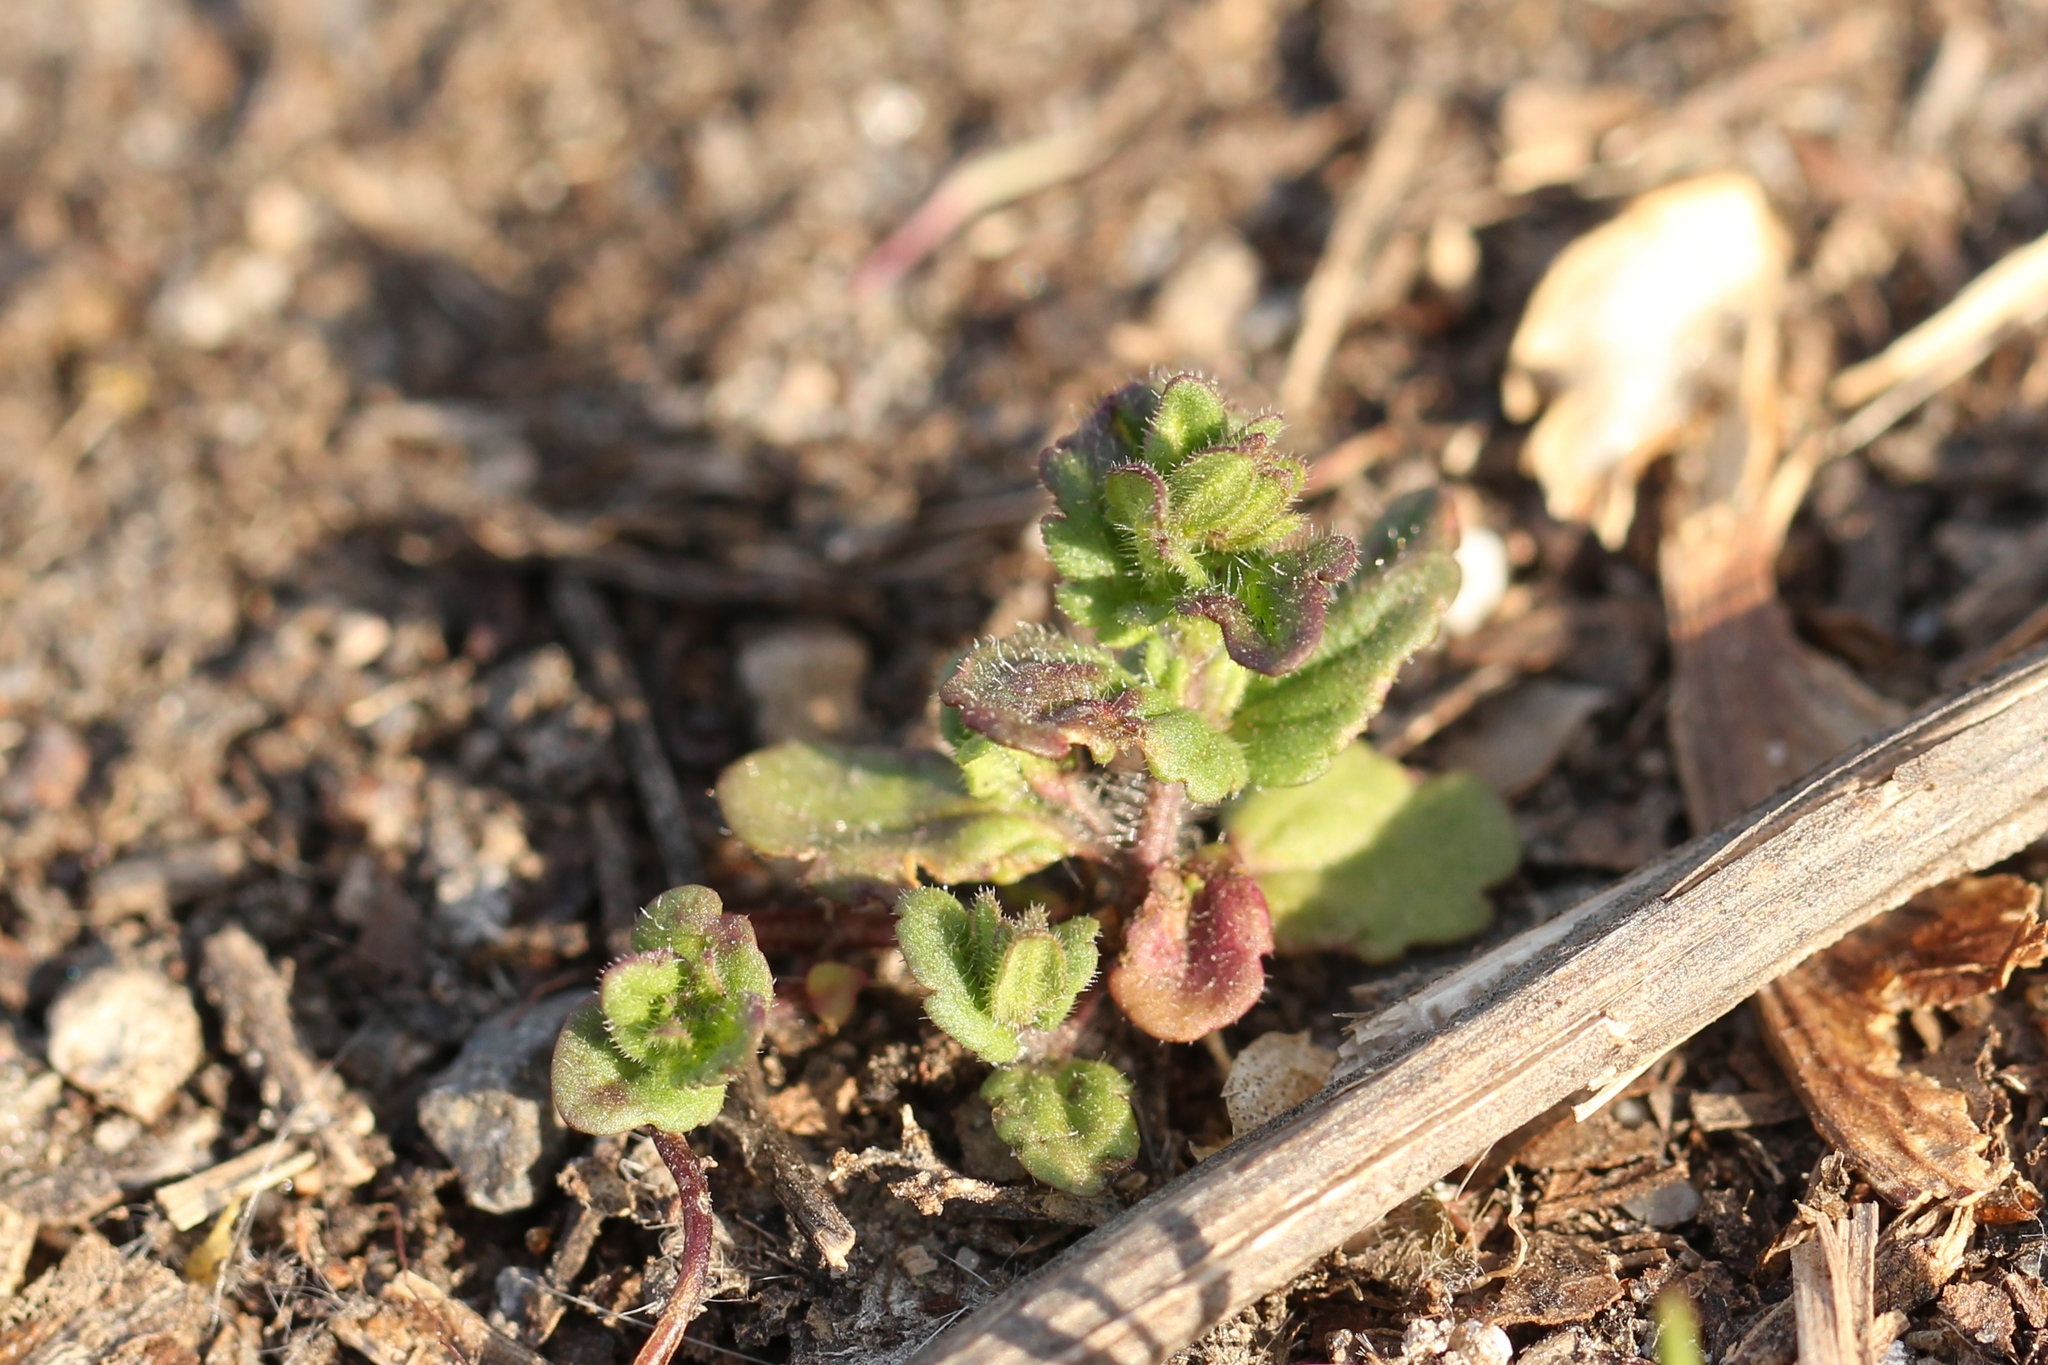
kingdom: Plantae
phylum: Tracheophyta
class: Magnoliopsida
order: Lamiales
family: Plantaginaceae
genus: Veronica
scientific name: Veronica arvensis
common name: Corn speedwell
